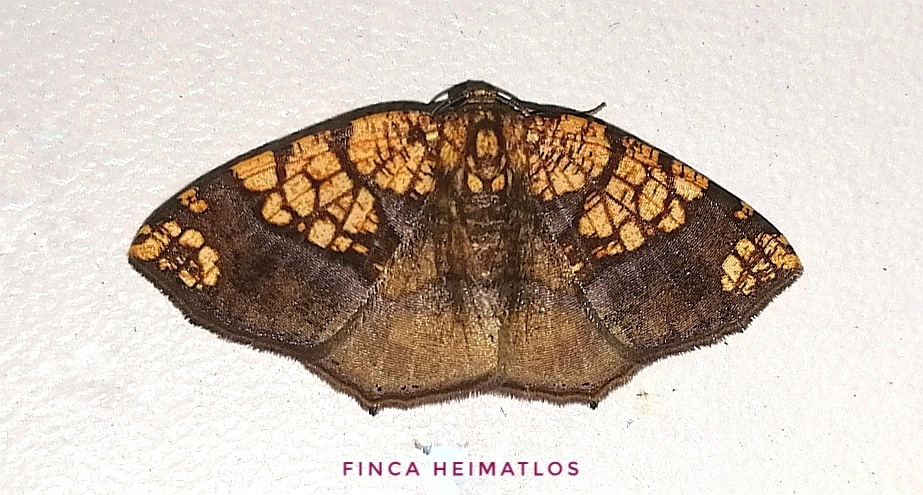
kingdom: Animalia
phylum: Arthropoda
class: Insecta
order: Lepidoptera
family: Geometridae
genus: Nematocampa
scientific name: Nematocampa completa
